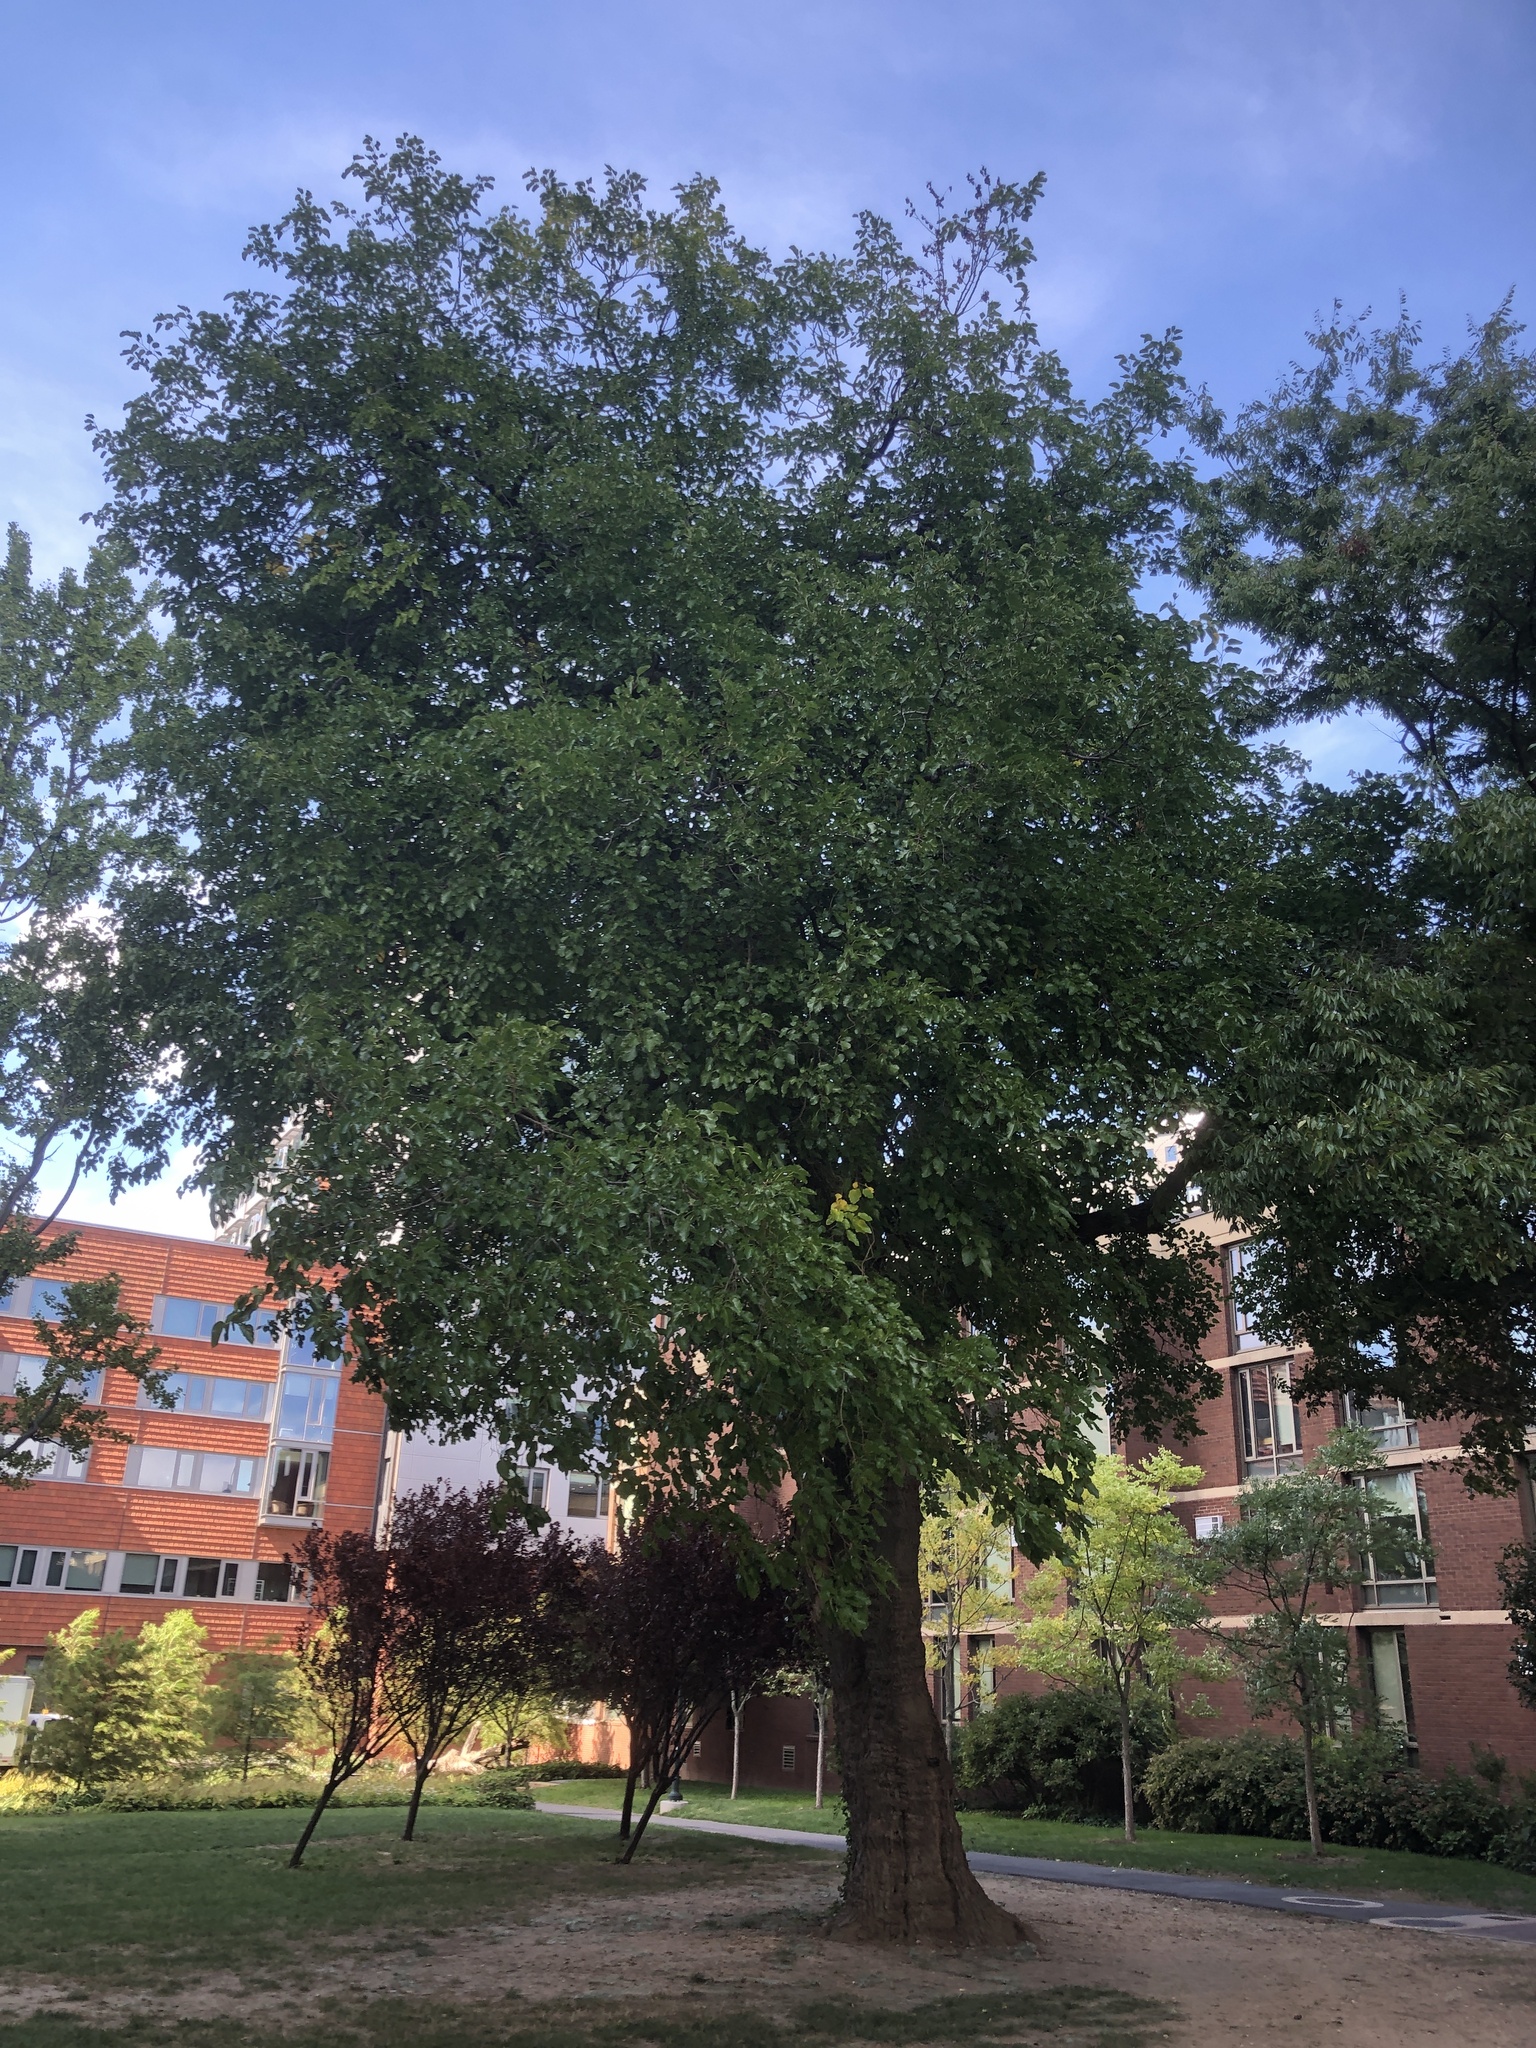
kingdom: Plantae
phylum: Tracheophyta
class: Magnoliopsida
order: Rosales
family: Moraceae
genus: Morus
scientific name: Morus alba
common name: White mulberry
